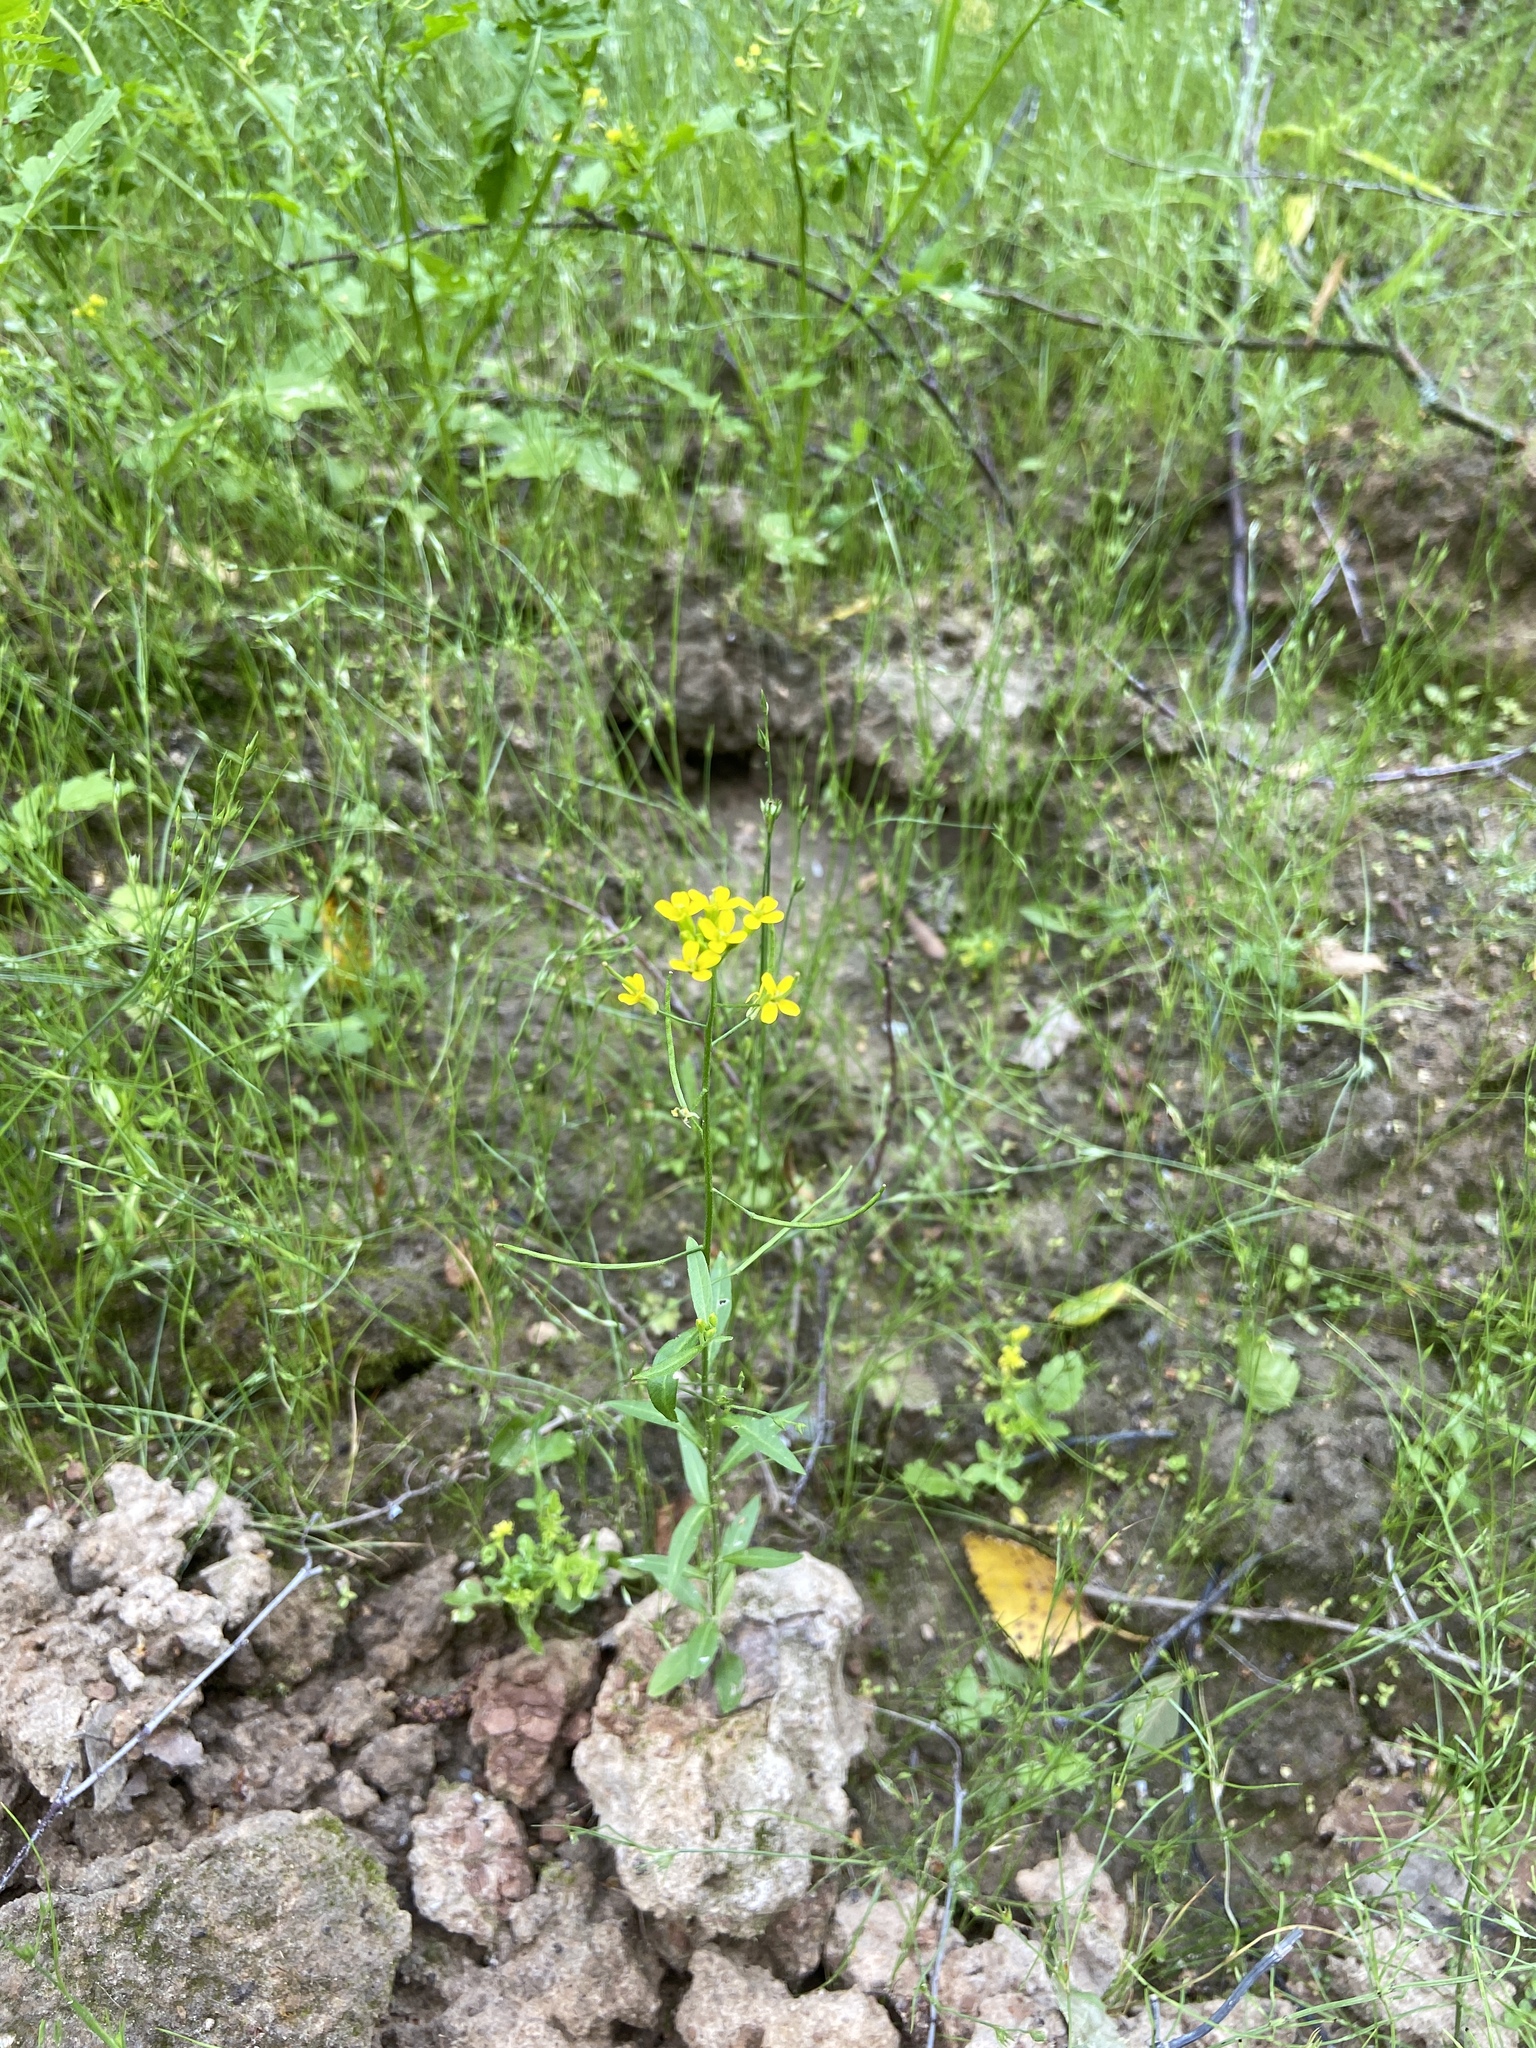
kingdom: Plantae
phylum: Tracheophyta
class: Magnoliopsida
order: Brassicales
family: Brassicaceae
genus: Erysimum
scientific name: Erysimum cheiranthoides
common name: Treacle mustard
